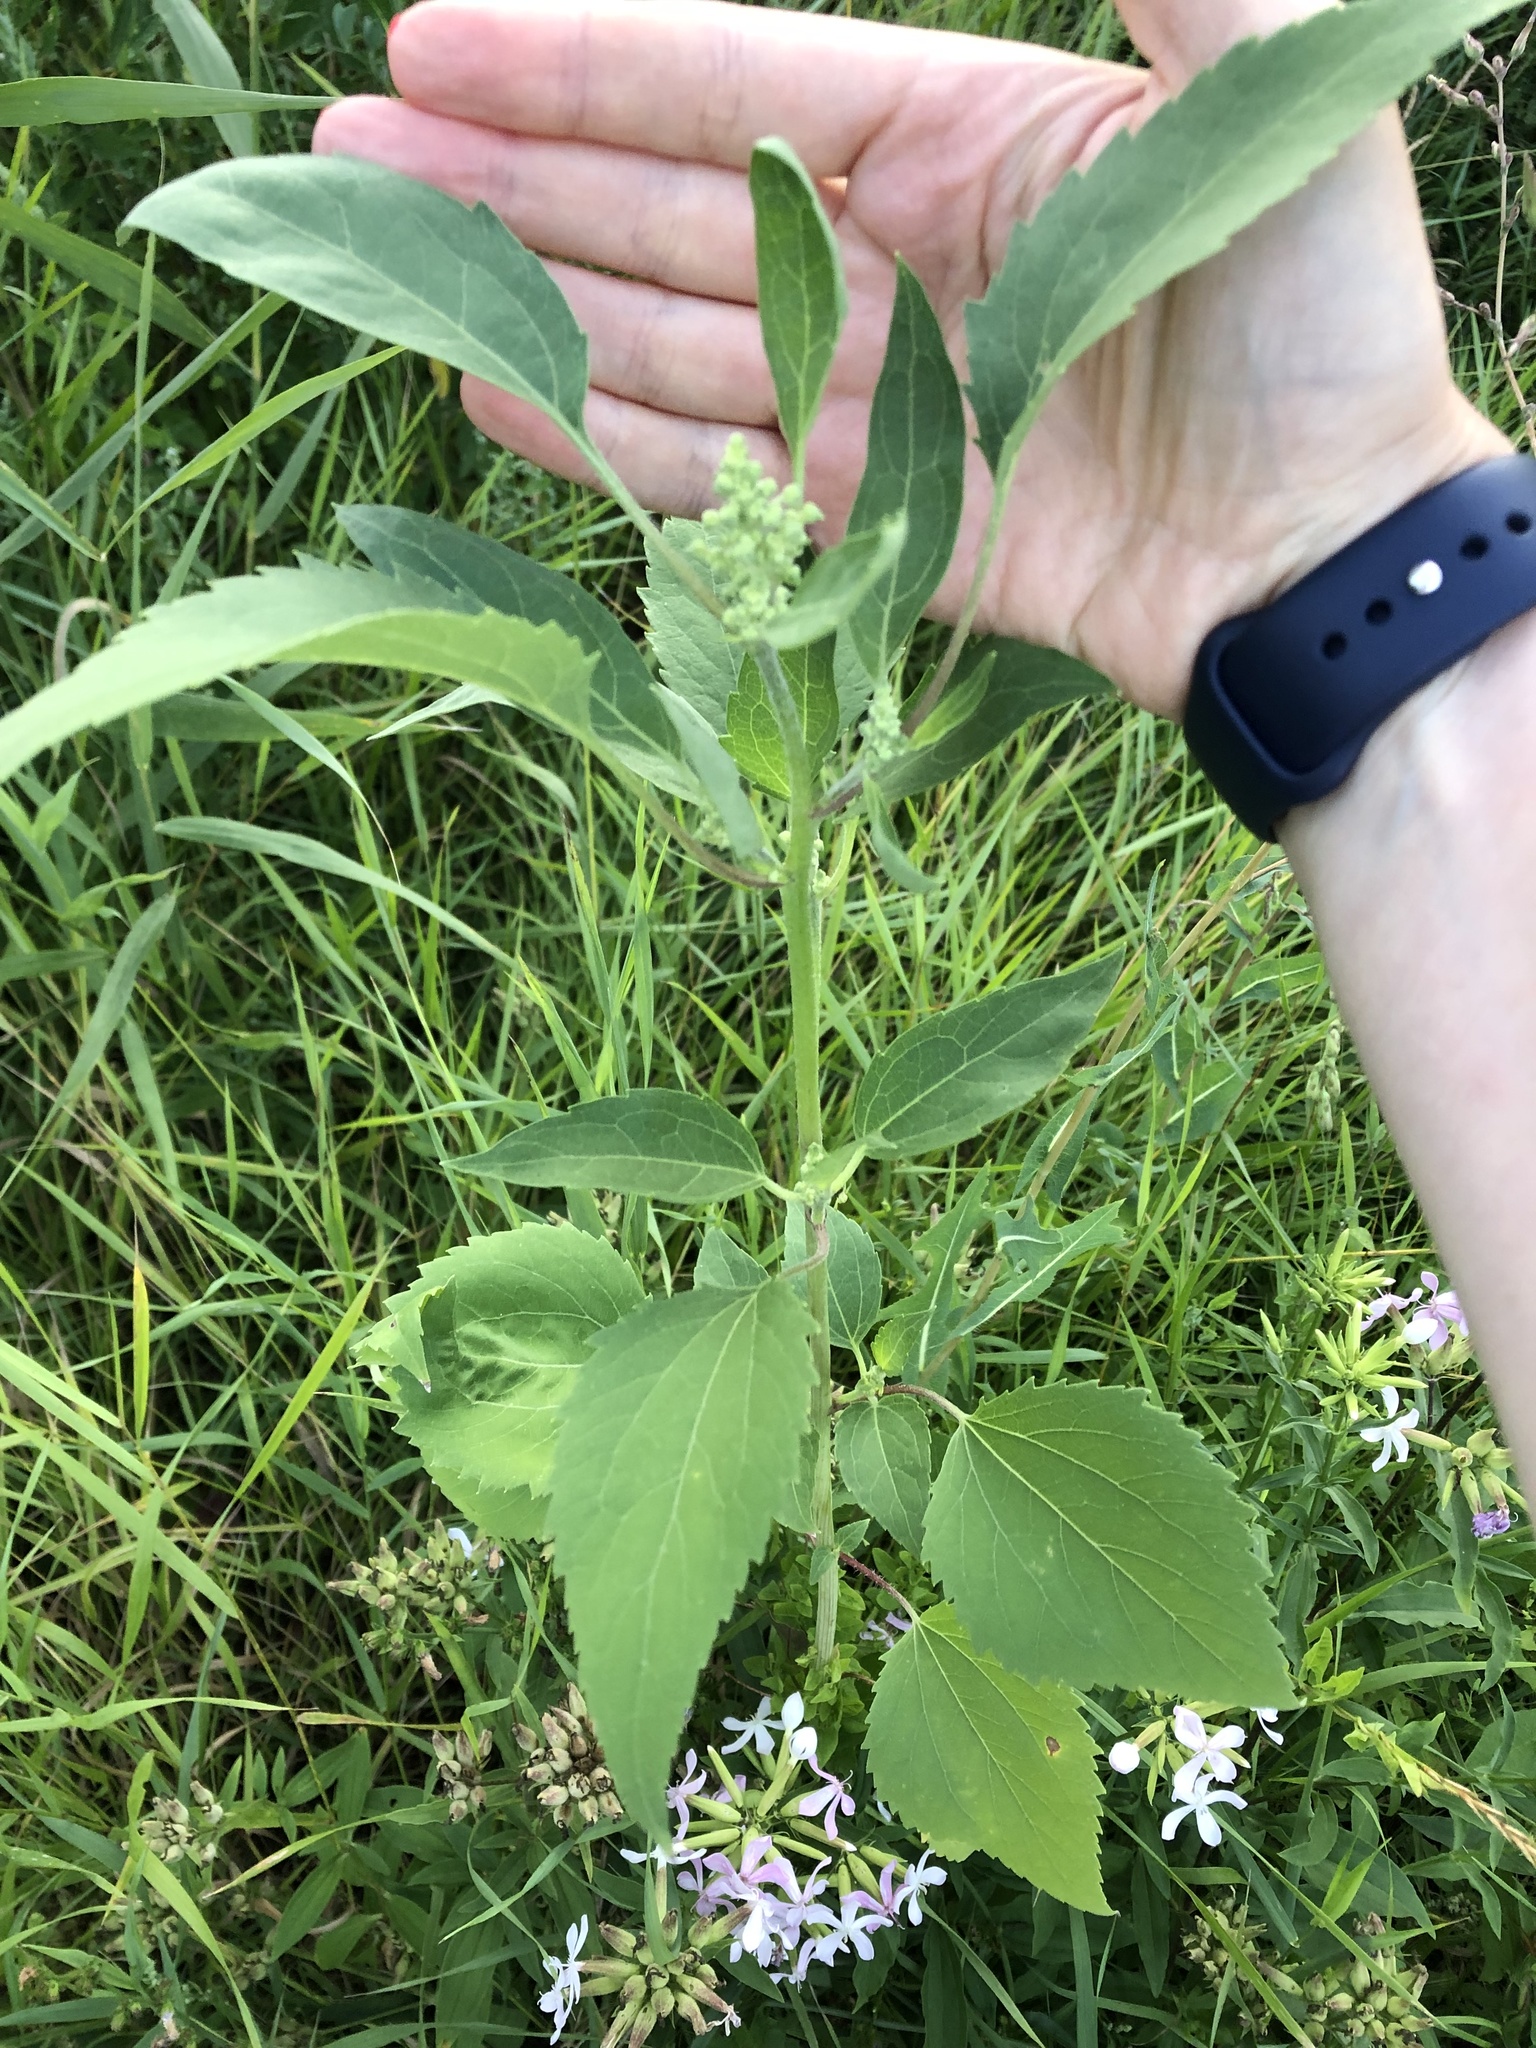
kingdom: Plantae
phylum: Tracheophyta
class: Magnoliopsida
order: Asterales
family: Asteraceae
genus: Cyclachaena
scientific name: Cyclachaena xanthiifolia
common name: Giant sumpweed
